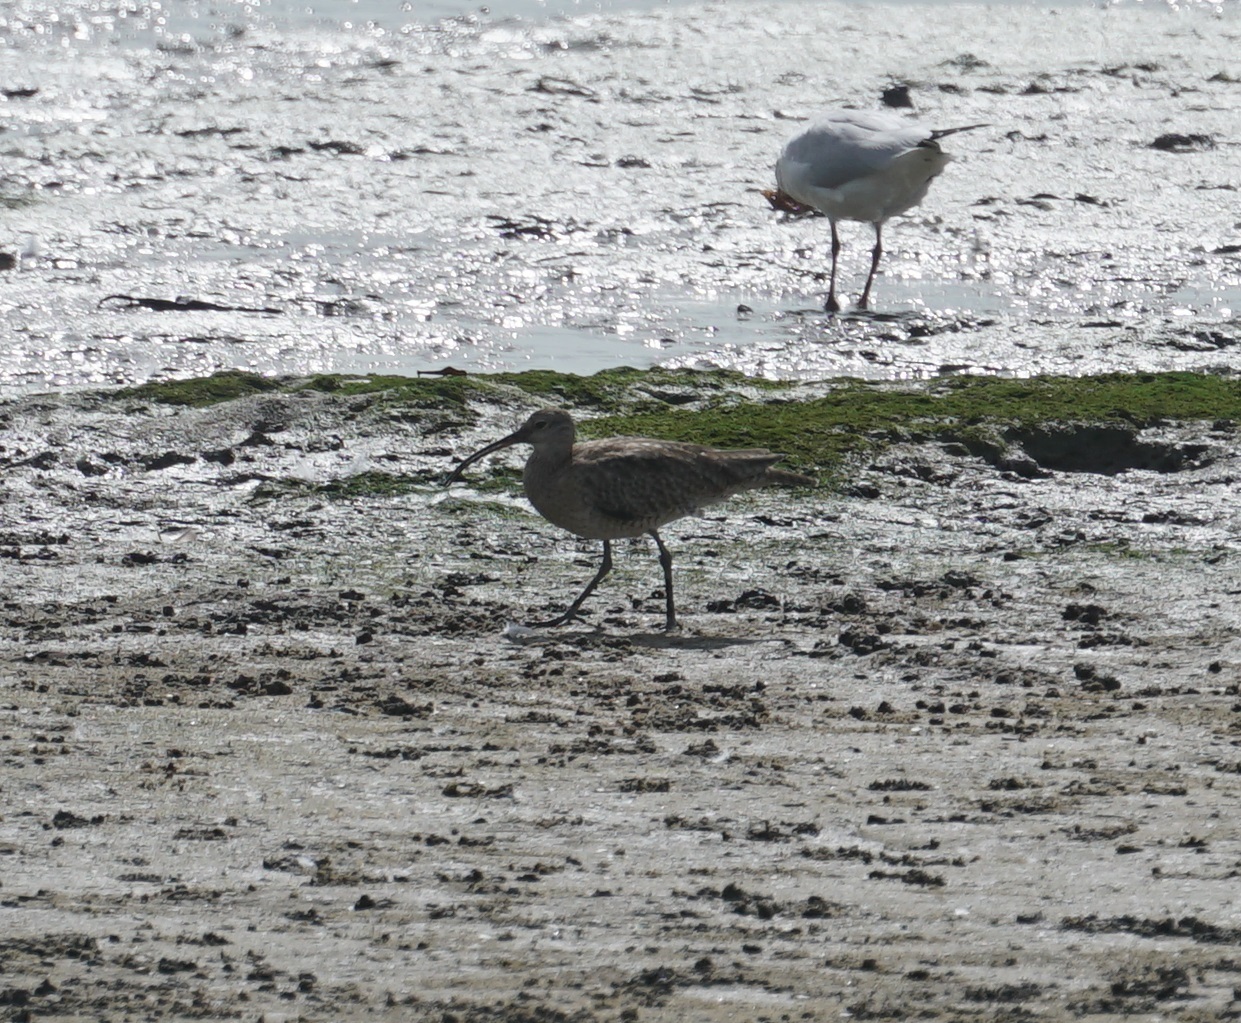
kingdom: Animalia
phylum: Chordata
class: Aves
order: Charadriiformes
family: Scolopacidae
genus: Numenius
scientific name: Numenius phaeopus
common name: Whimbrel
